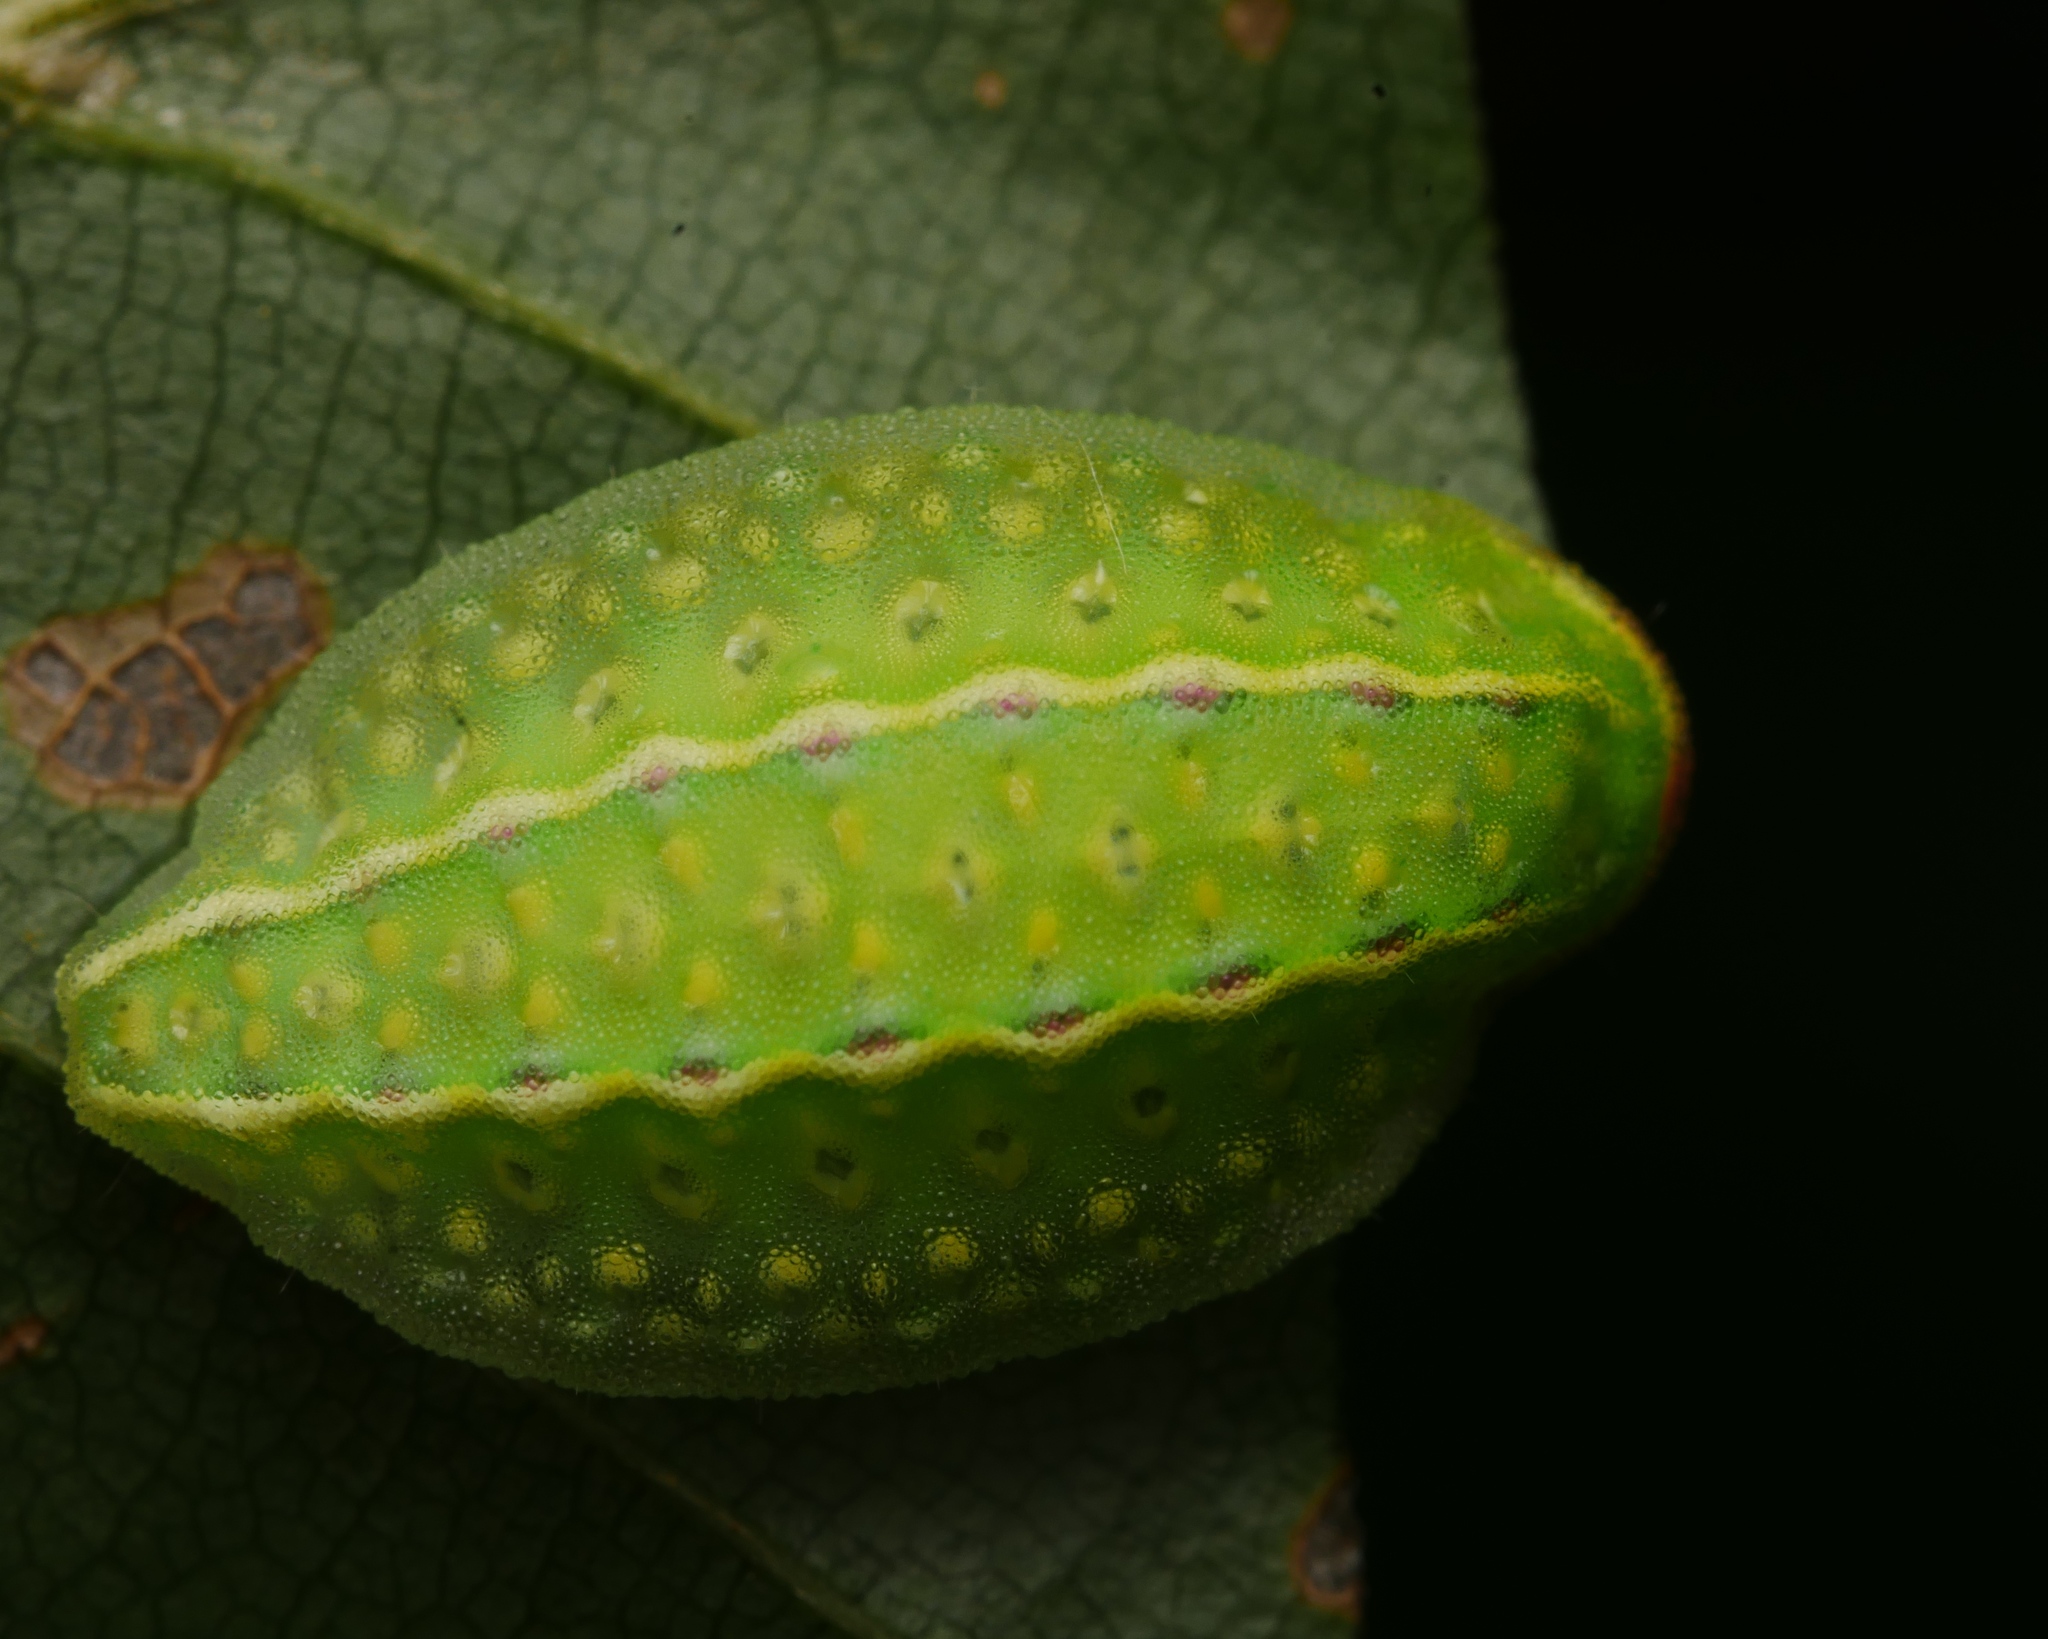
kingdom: Animalia
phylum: Arthropoda
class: Insecta
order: Lepidoptera
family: Limacodidae
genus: Apoda
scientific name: Apoda limacodes
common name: Festoon
